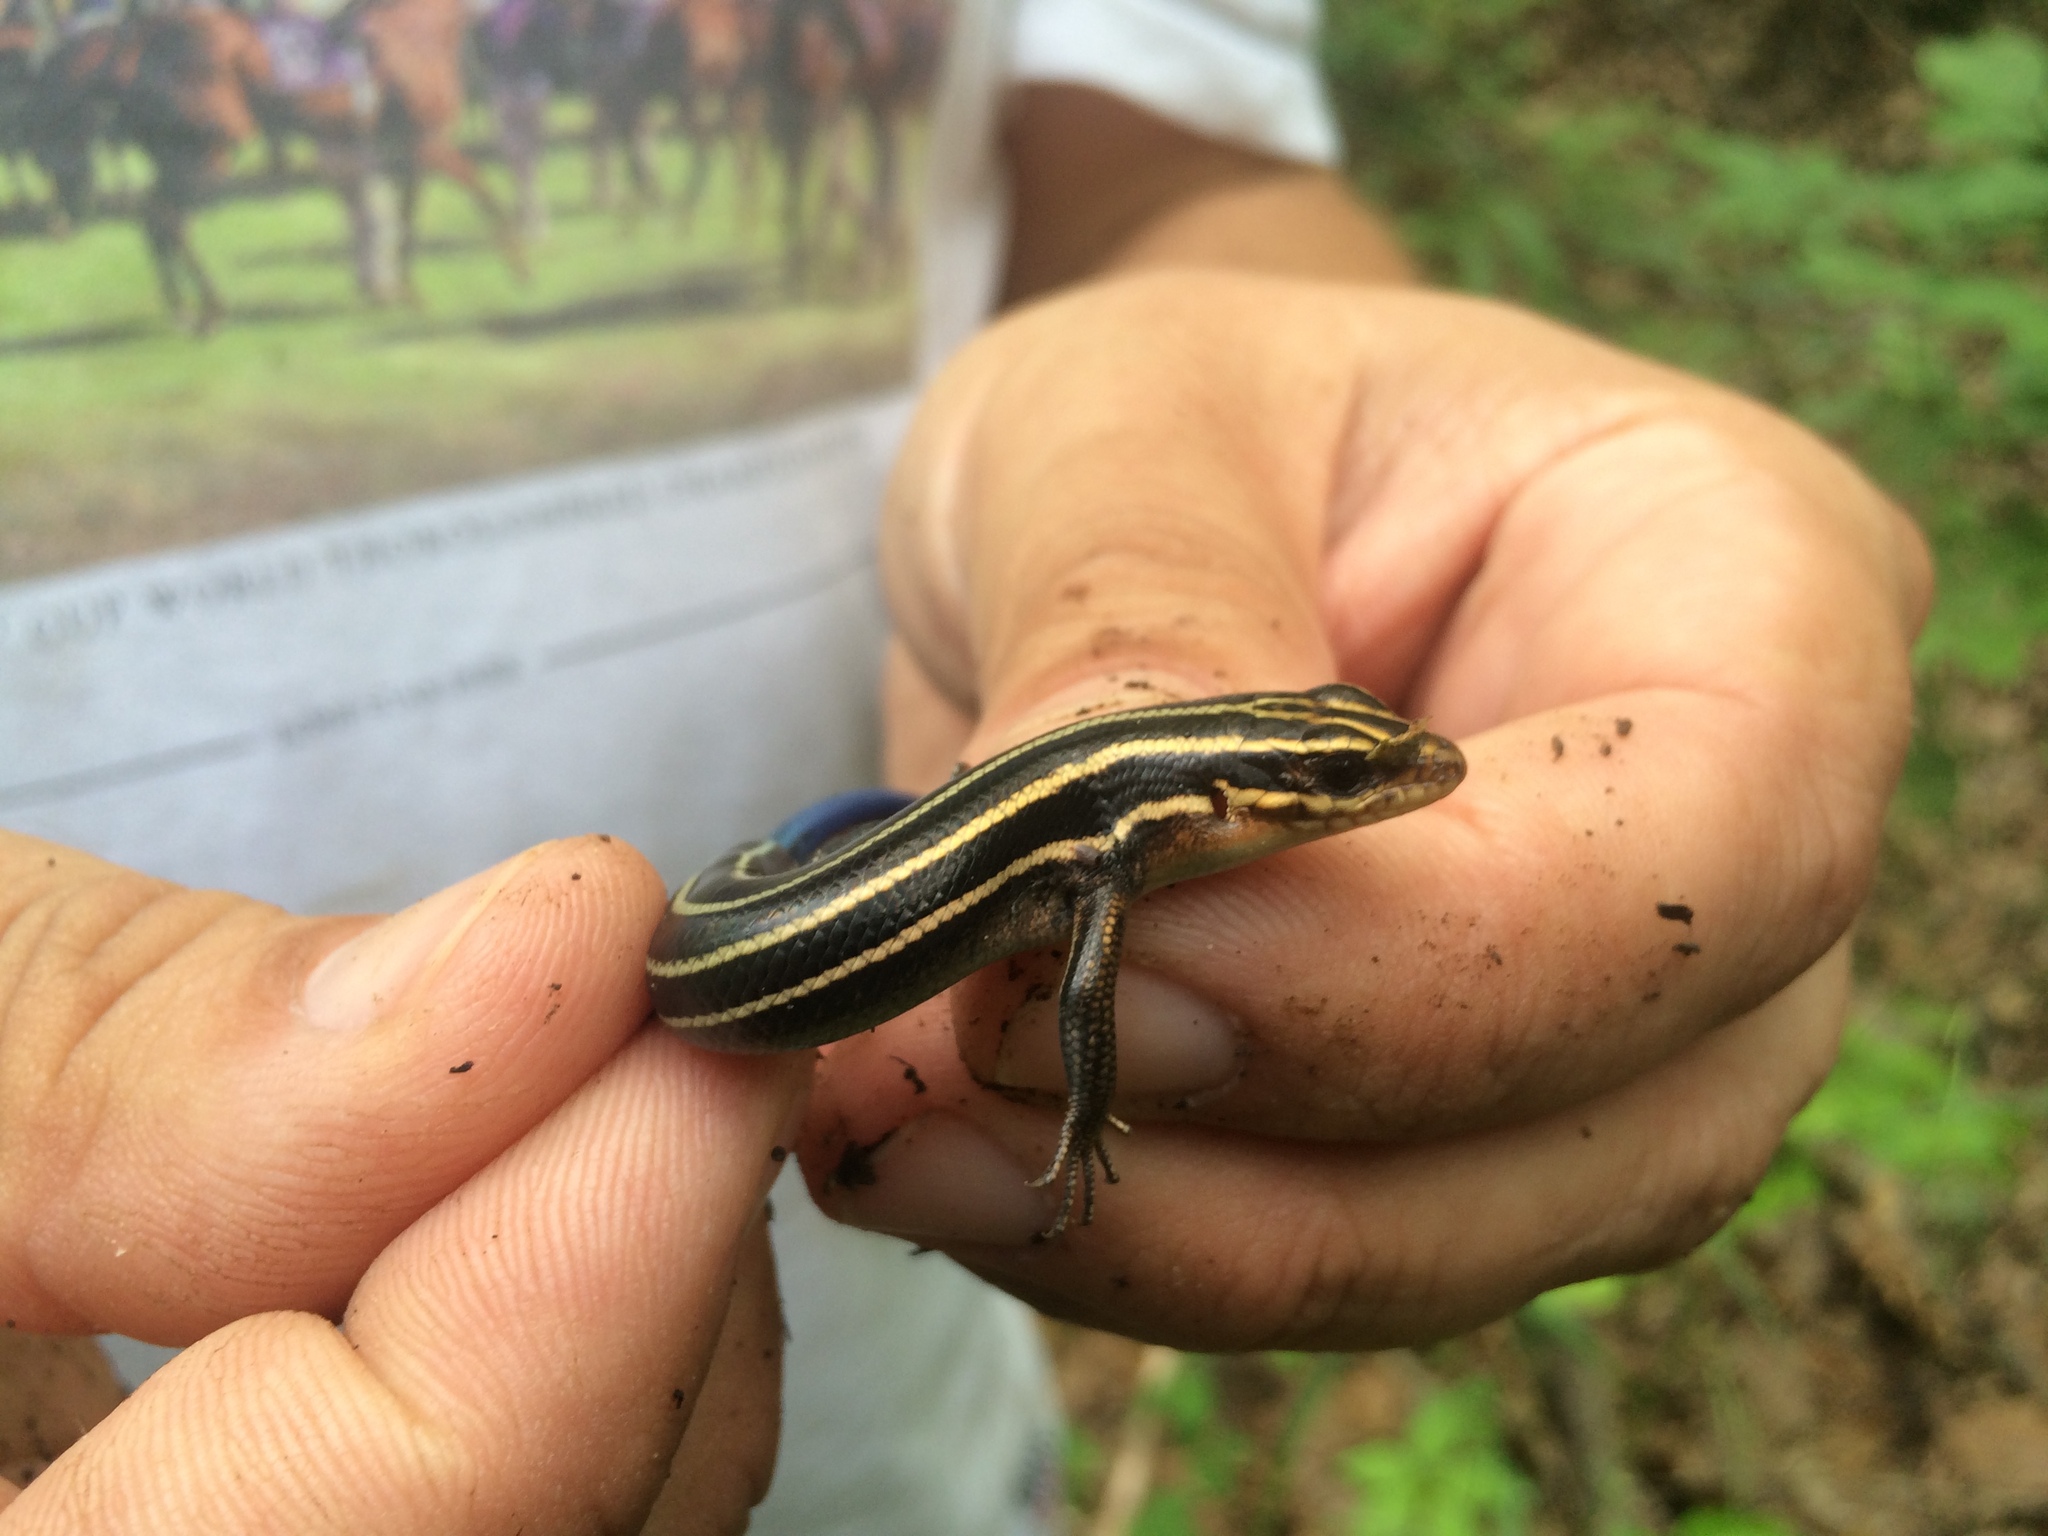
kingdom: Animalia
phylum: Chordata
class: Squamata
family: Scincidae
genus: Plestiodon
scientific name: Plestiodon fasciatus
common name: Five-lined skink
